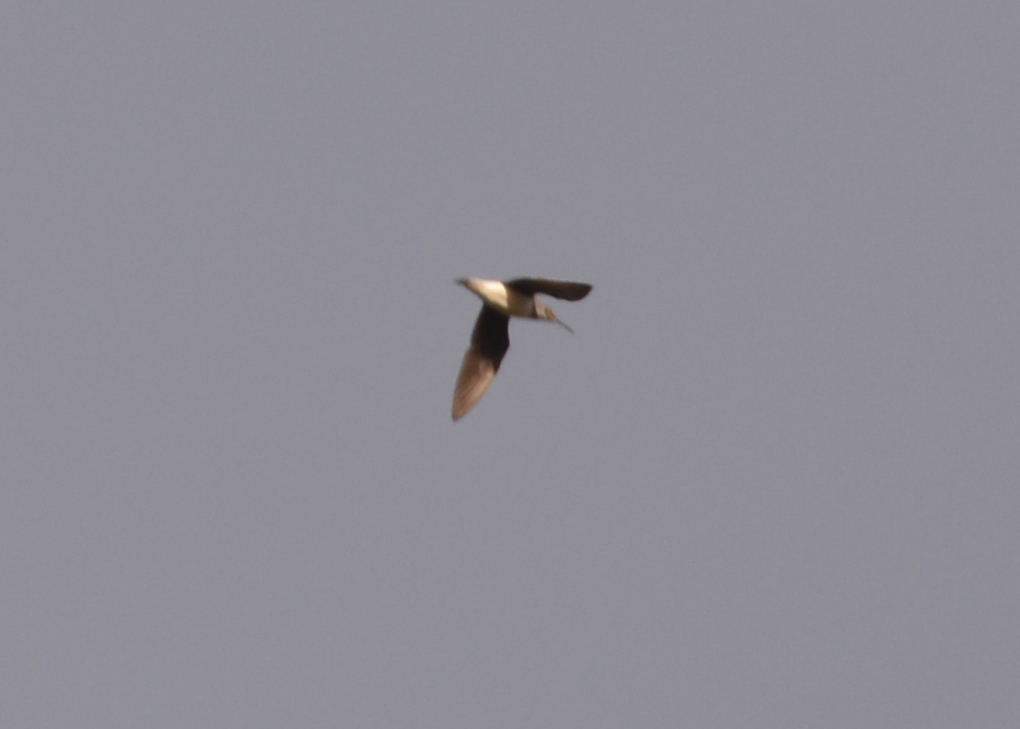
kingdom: Animalia
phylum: Chordata
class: Aves
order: Charadriiformes
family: Scolopacidae
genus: Tringa
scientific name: Tringa ochropus
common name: Green sandpiper
